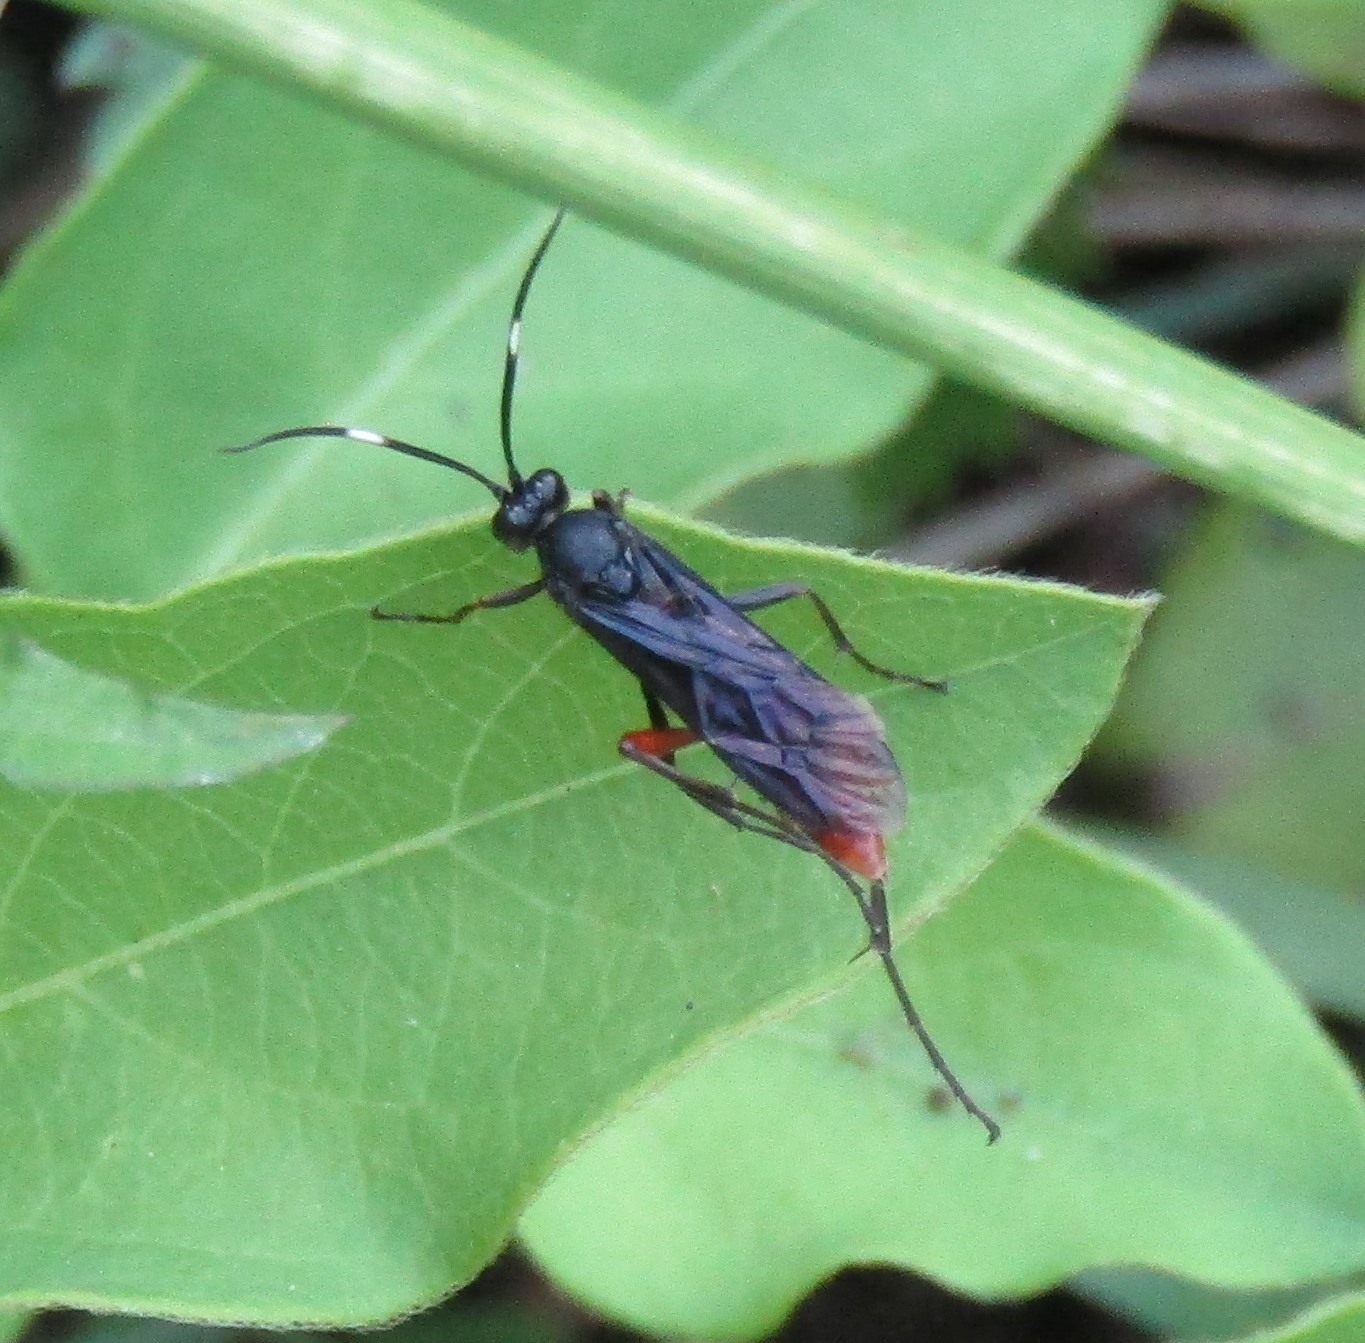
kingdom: Animalia
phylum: Arthropoda
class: Insecta
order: Hymenoptera
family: Ichneumonidae
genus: Limonethe
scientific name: Limonethe maurator
